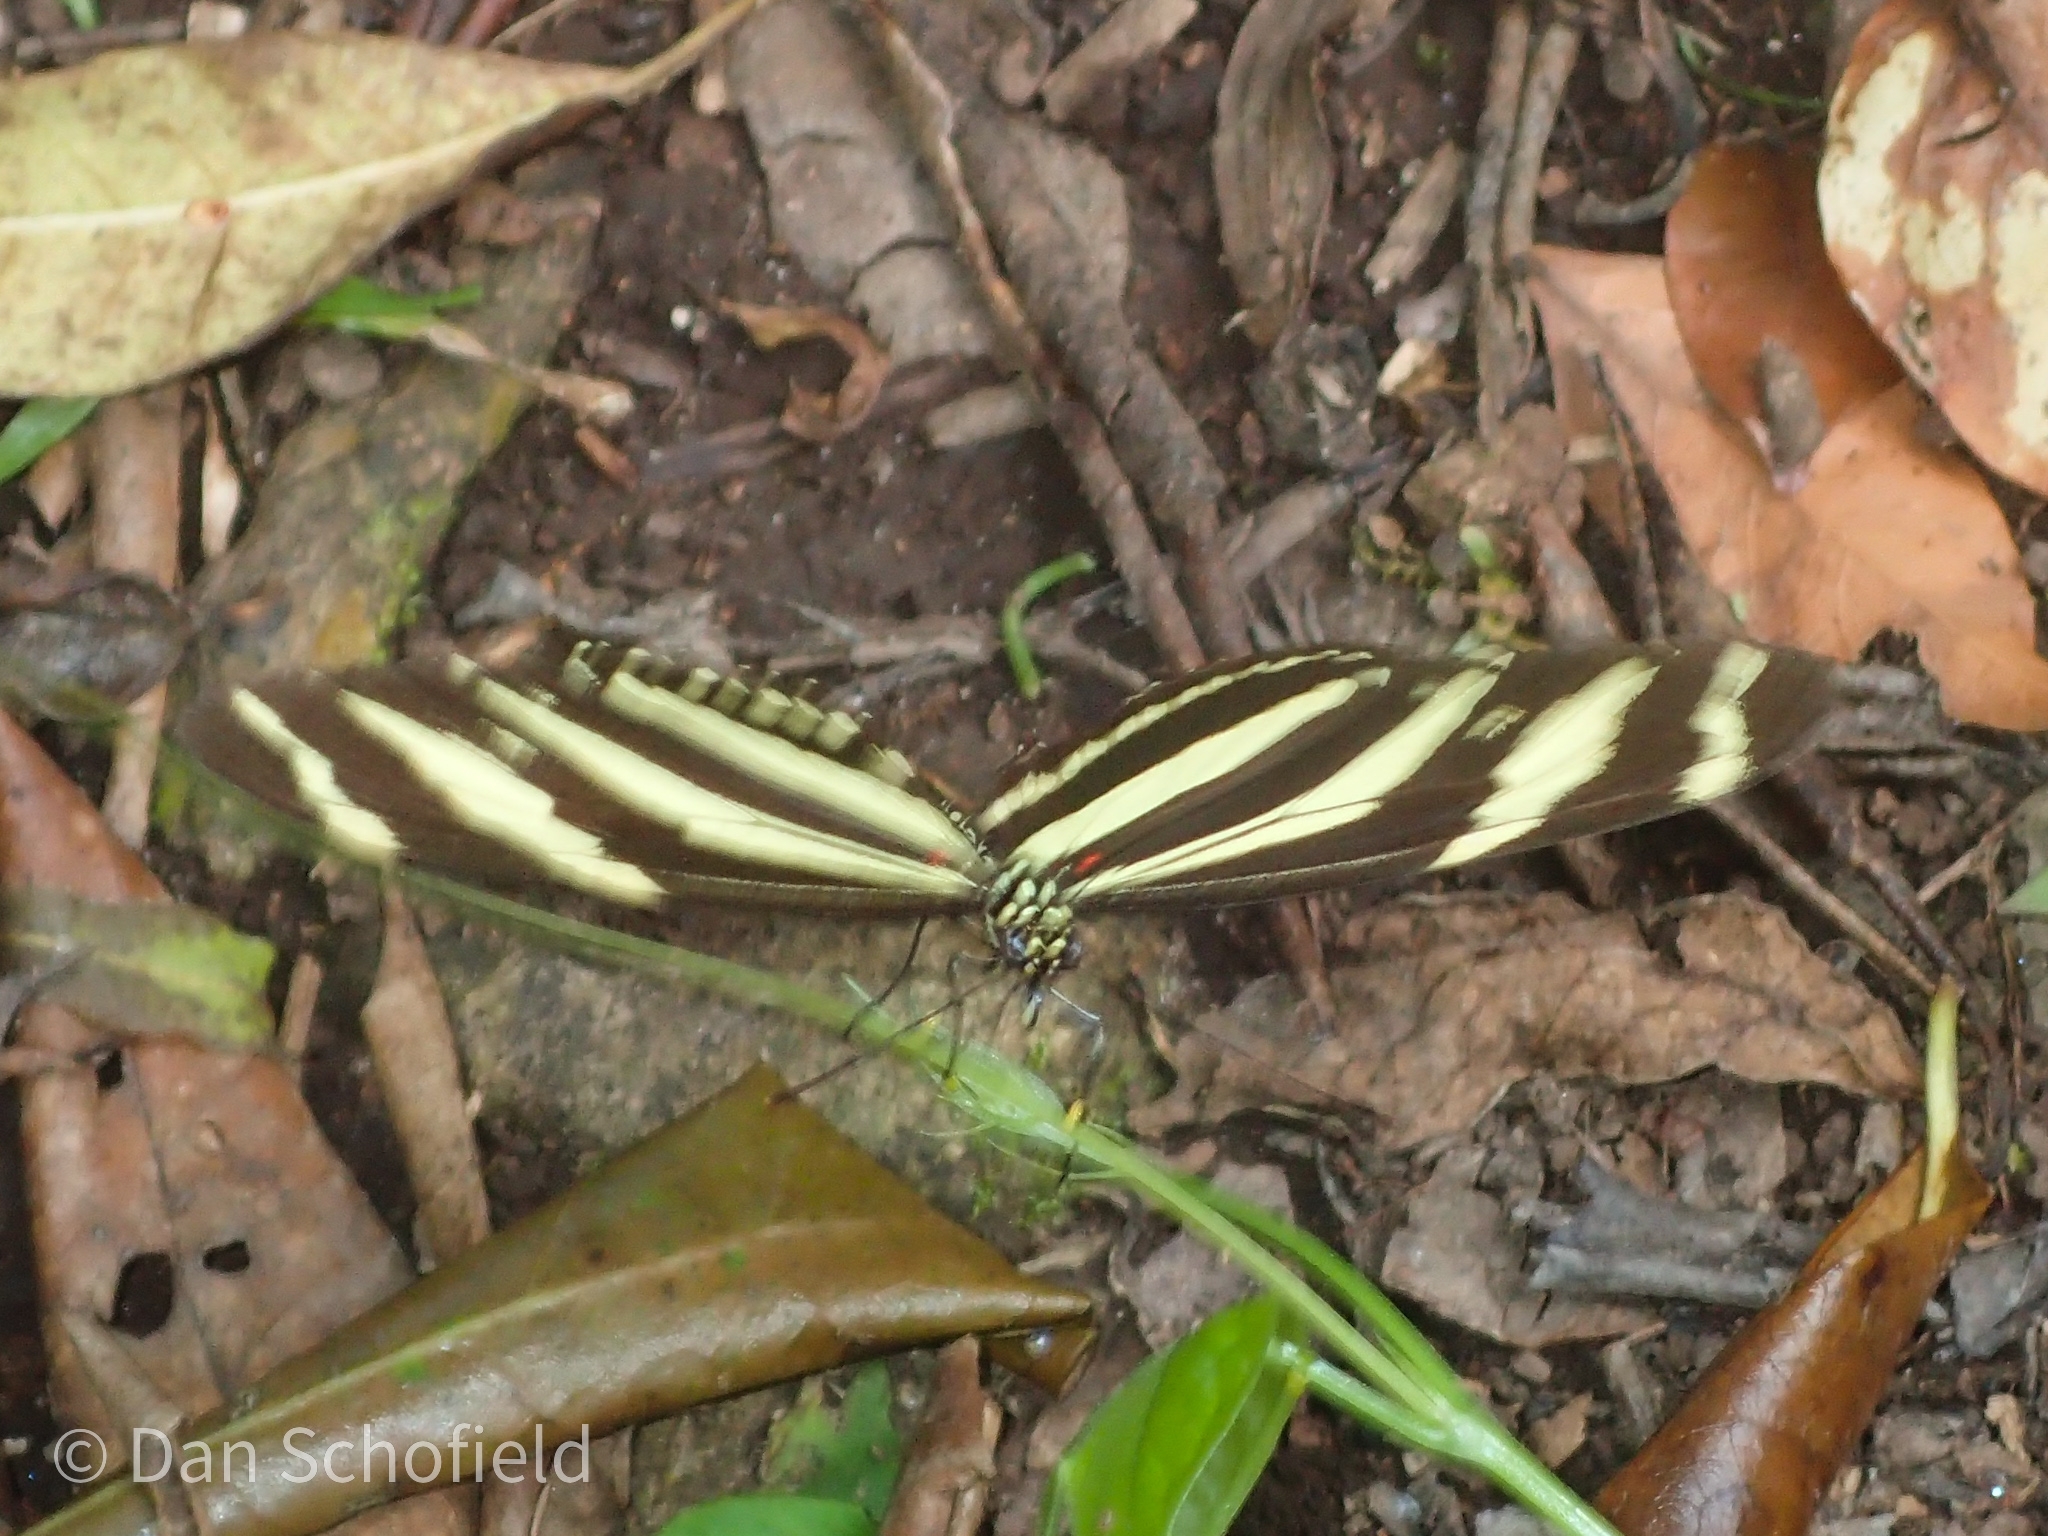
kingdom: Animalia
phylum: Arthropoda
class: Insecta
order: Lepidoptera
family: Nymphalidae
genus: Heliconius
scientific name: Heliconius charithonia
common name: Zebra long wing
